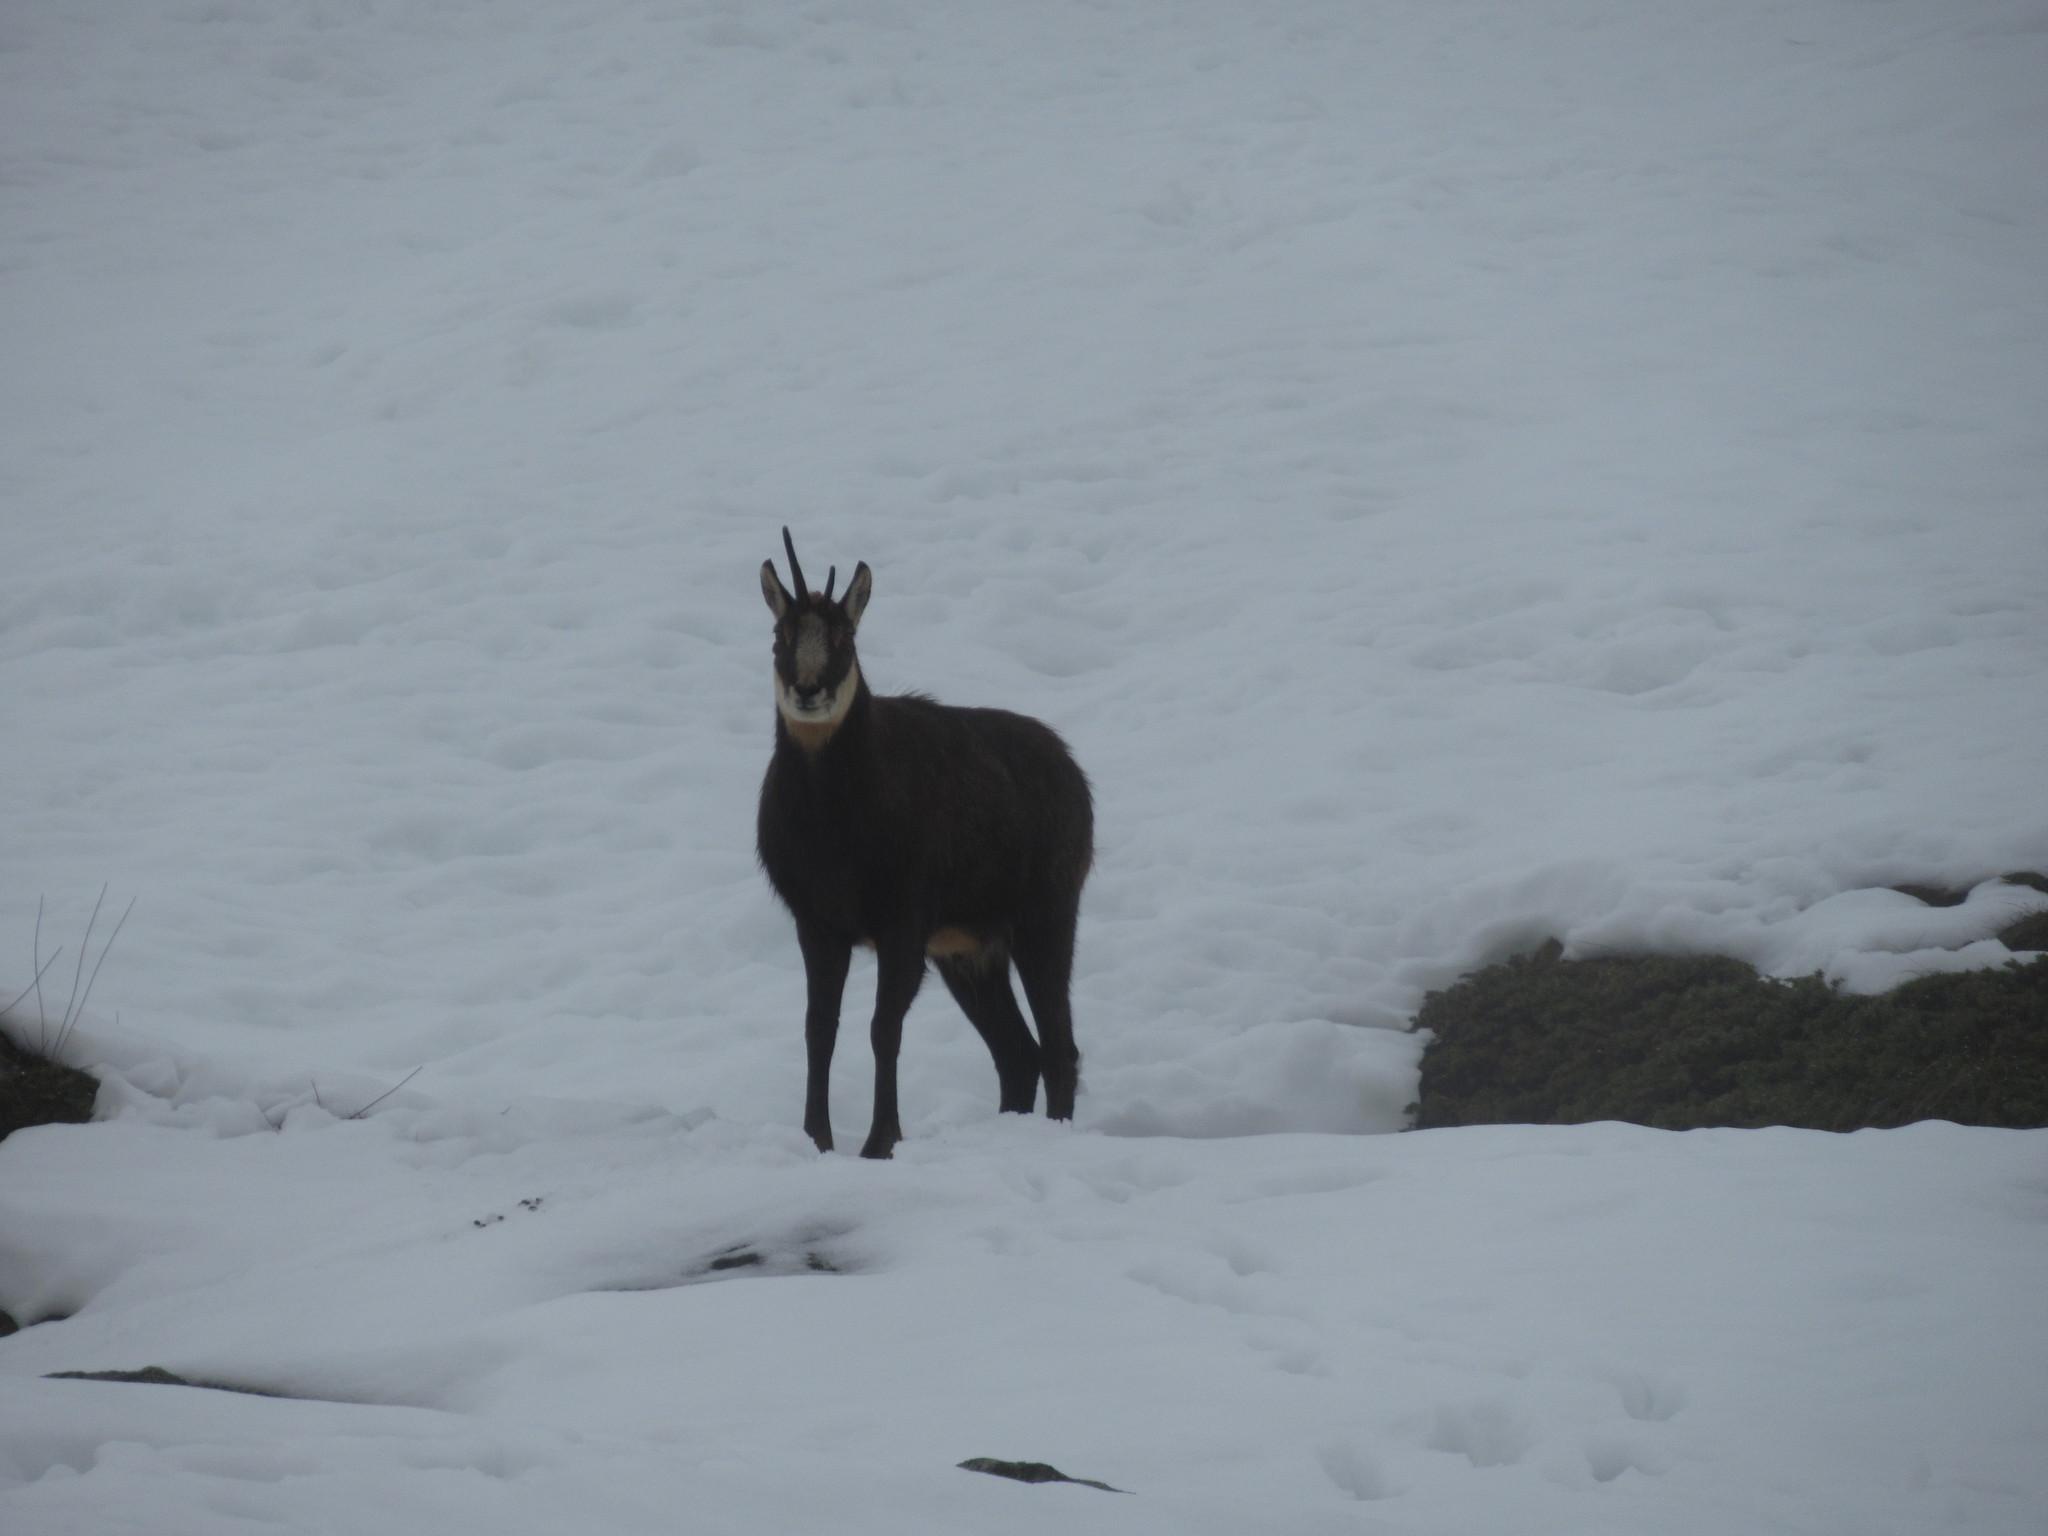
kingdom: Animalia
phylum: Chordata
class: Mammalia
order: Artiodactyla
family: Bovidae
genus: Rupicapra
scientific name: Rupicapra rupicapra
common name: Chamois
